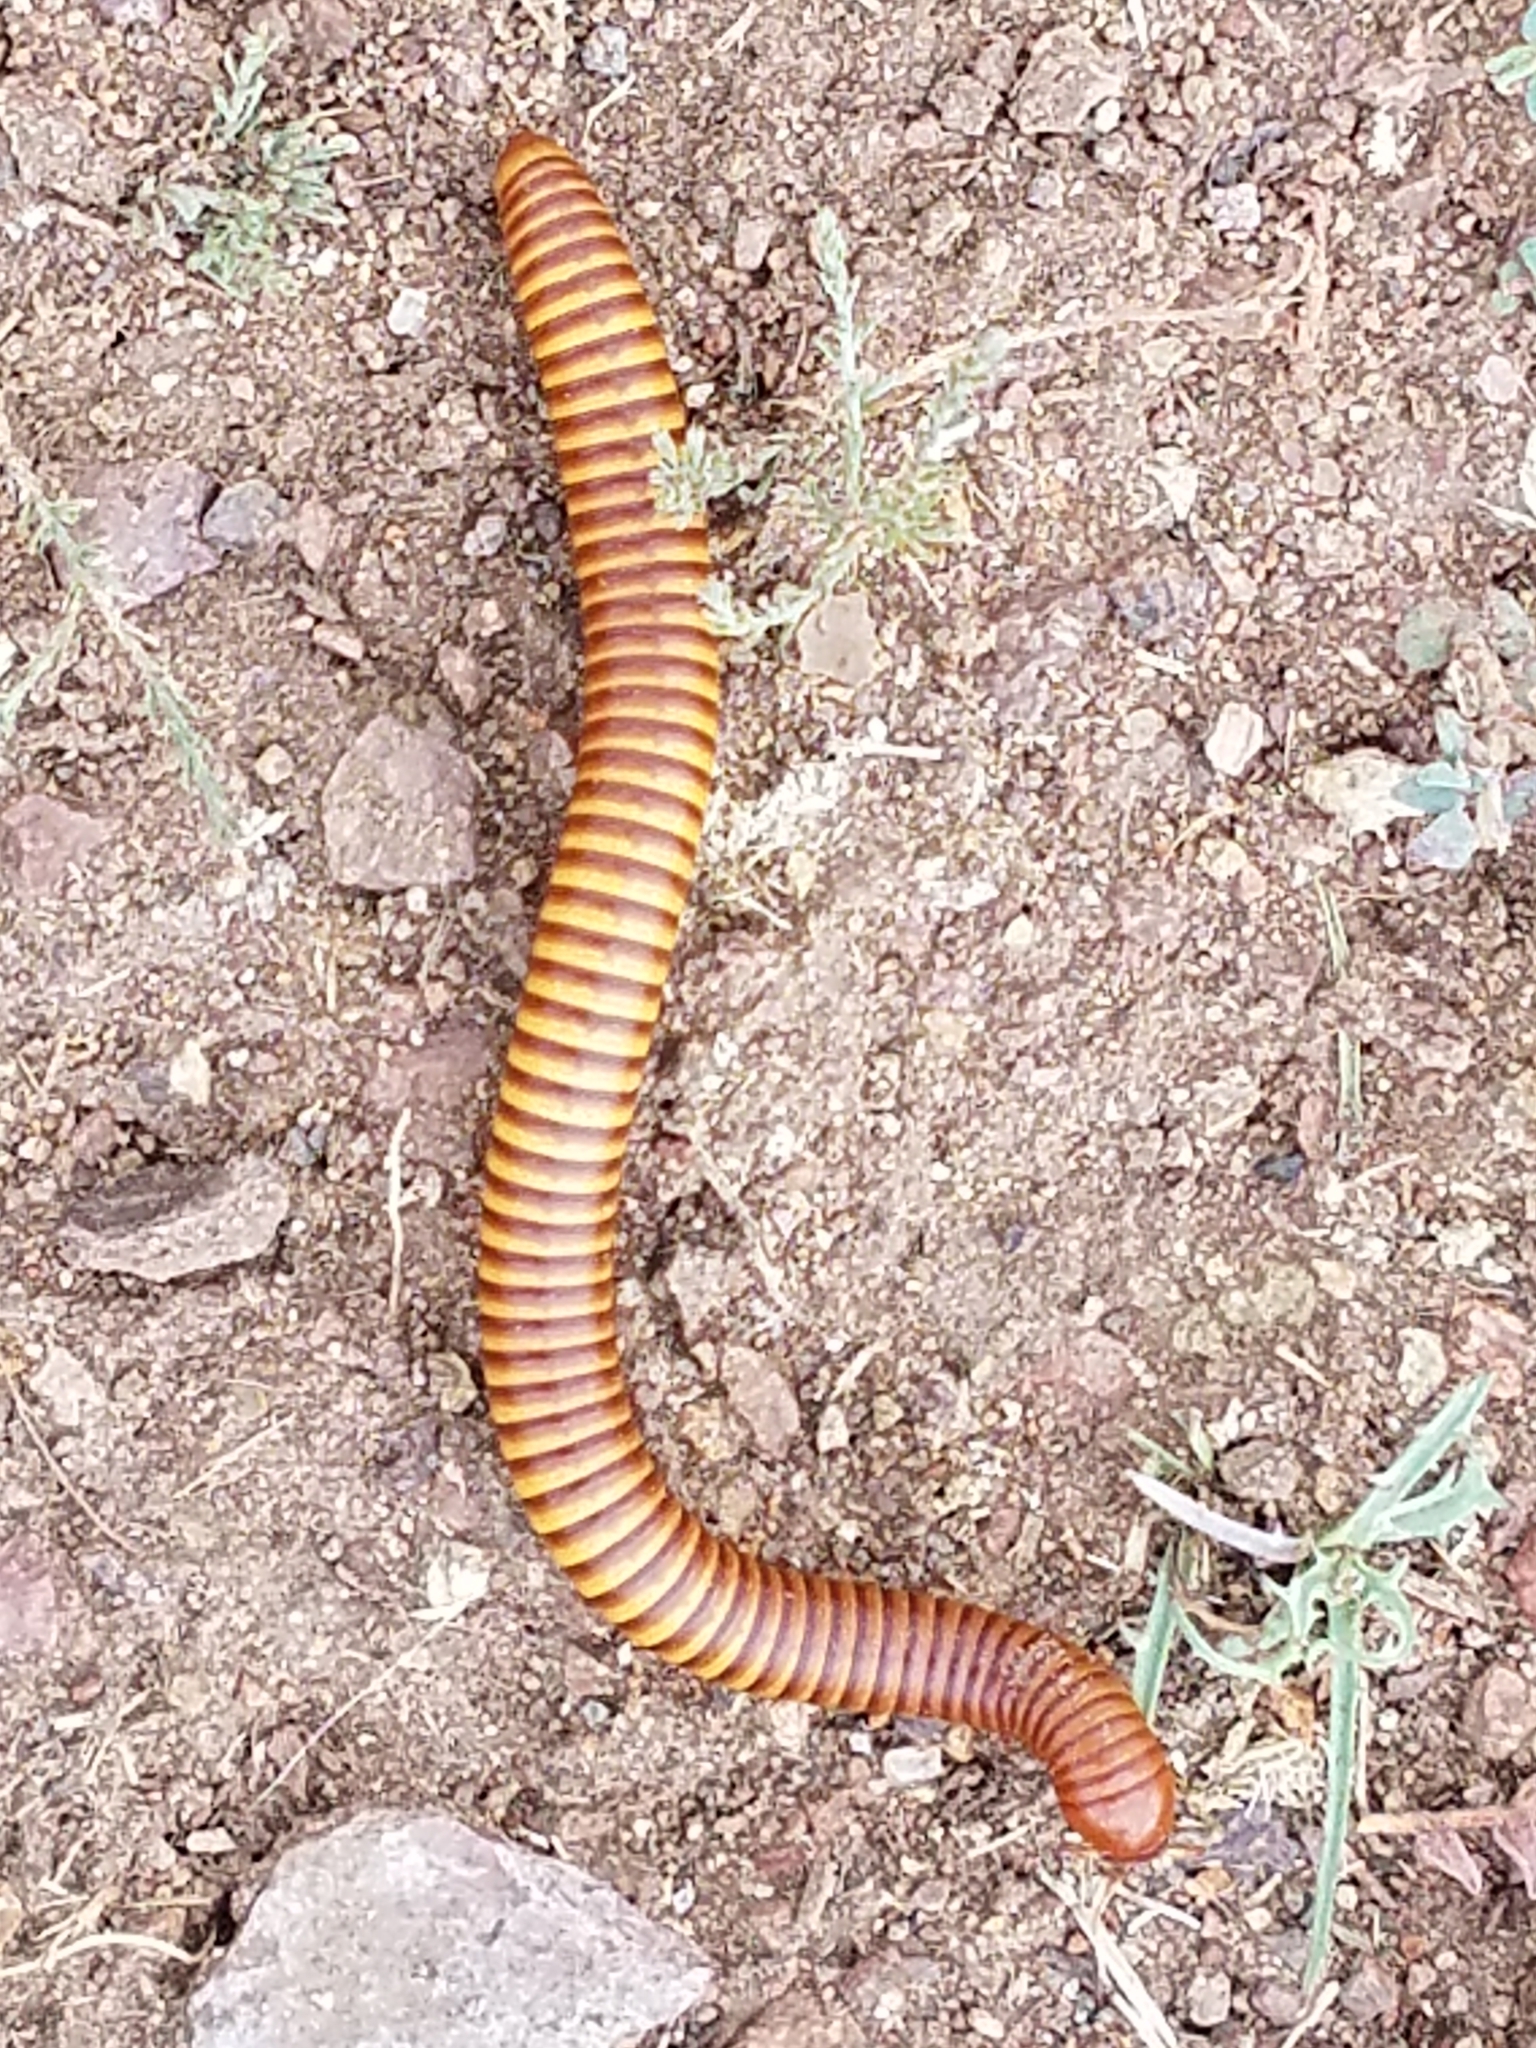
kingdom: Animalia
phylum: Arthropoda
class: Diplopoda
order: Spirostreptida
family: Spirostreptidae
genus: Orthoporus
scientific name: Orthoporus ornatus
